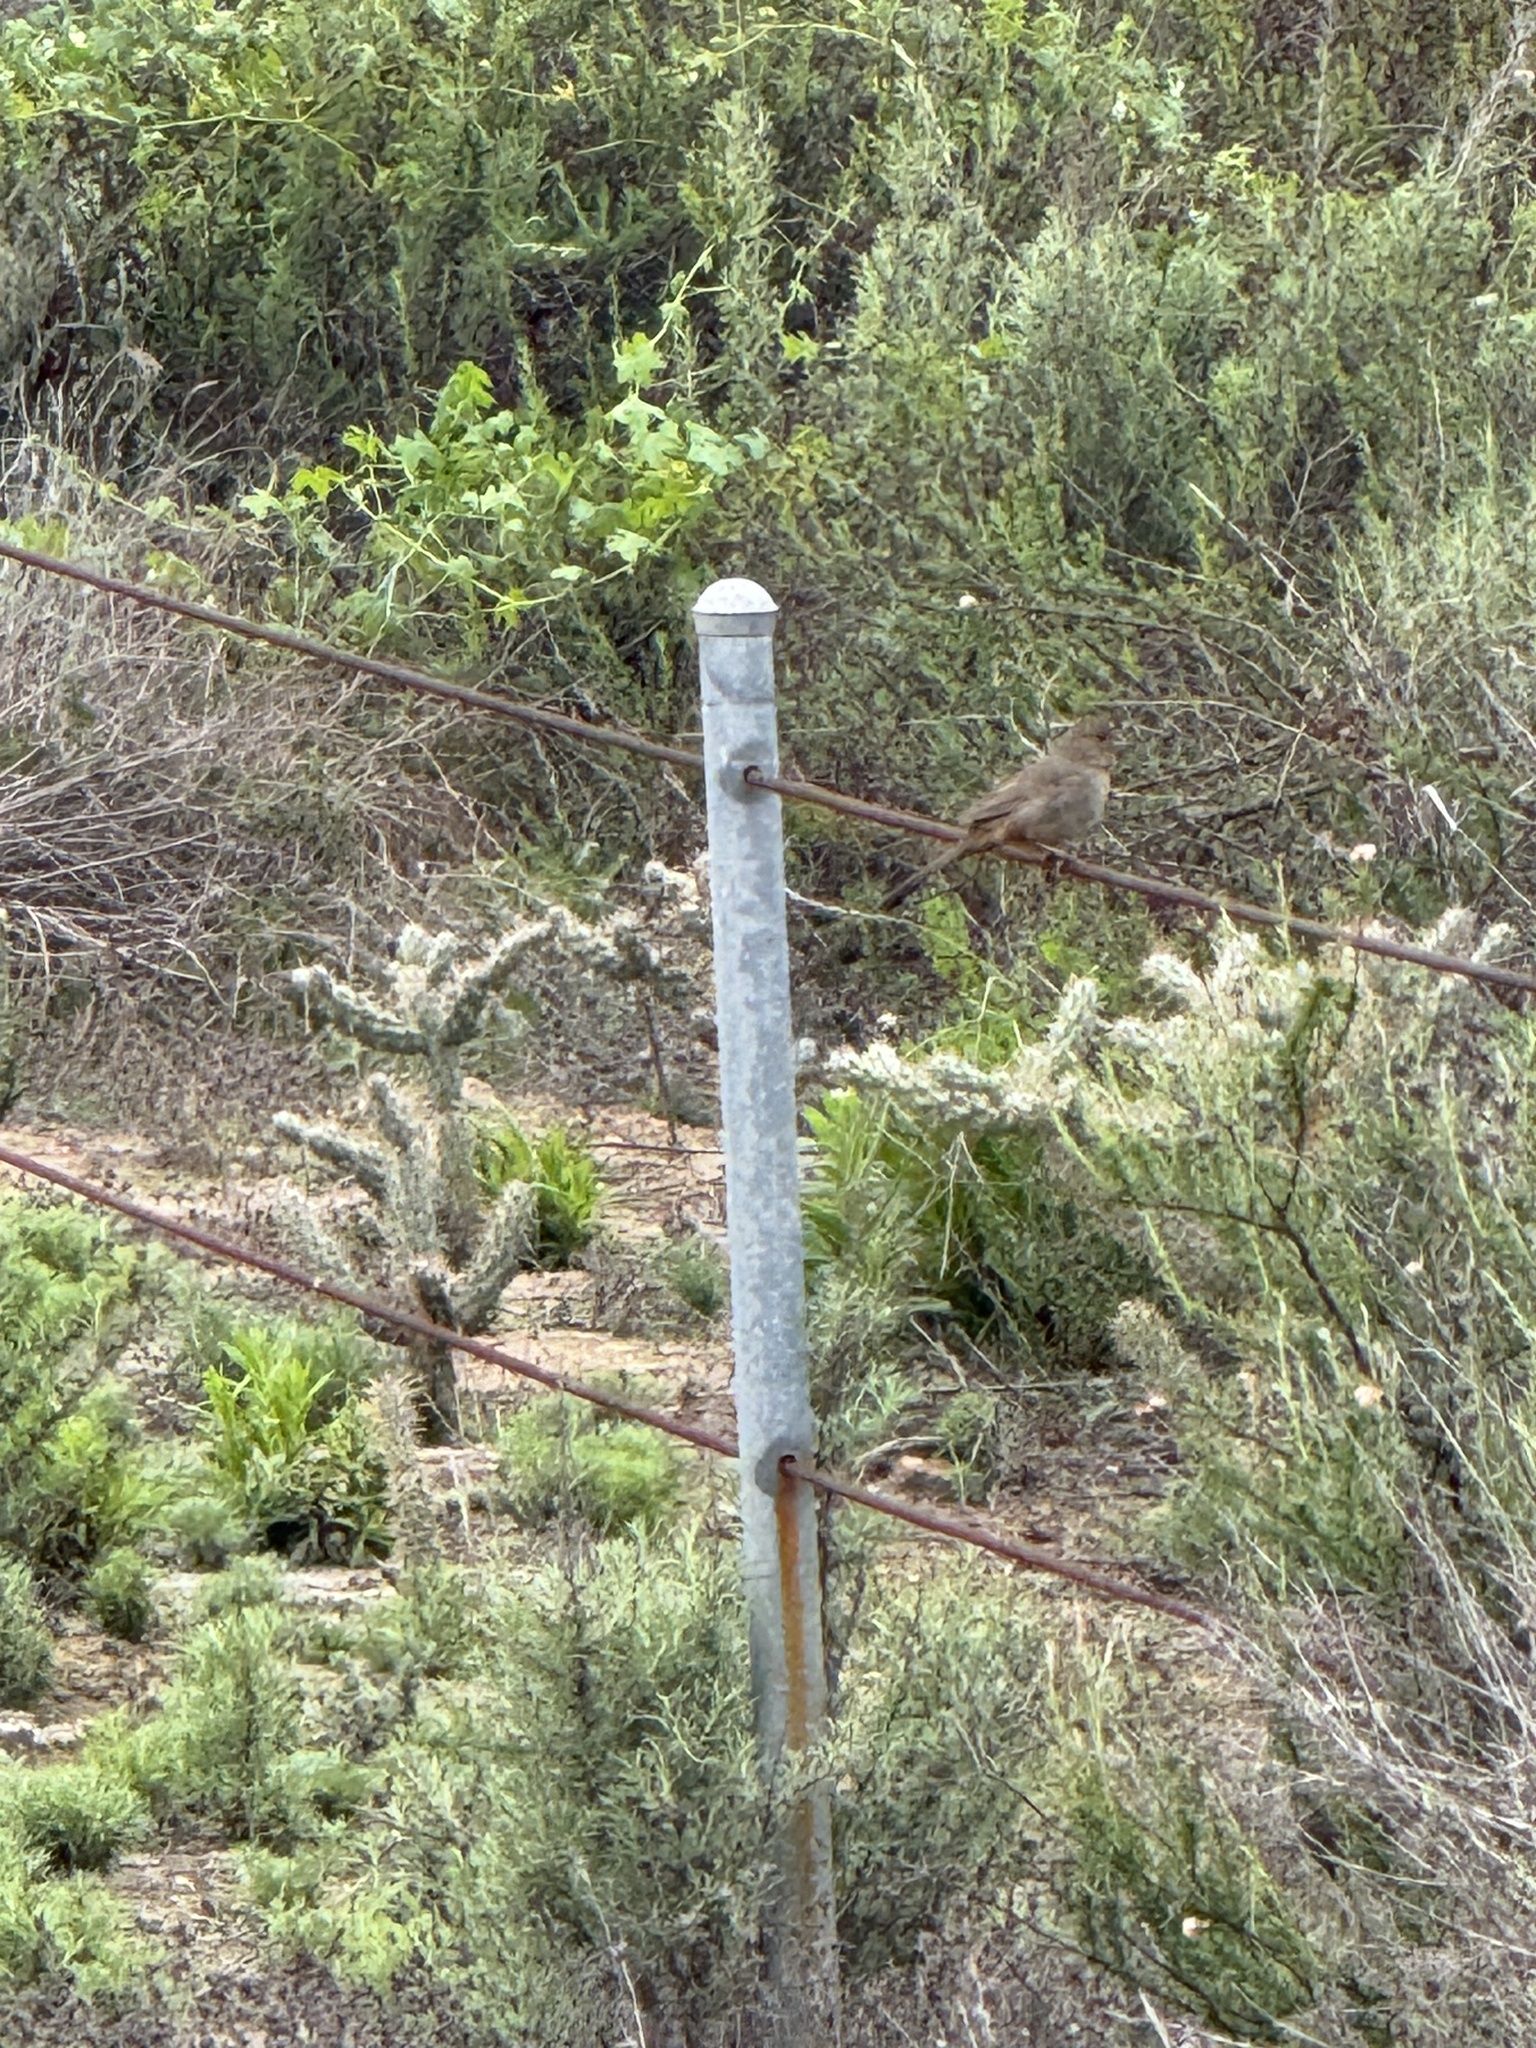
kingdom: Animalia
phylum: Chordata
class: Aves
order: Passeriformes
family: Passerellidae
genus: Melozone
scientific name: Melozone crissalis
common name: California towhee
